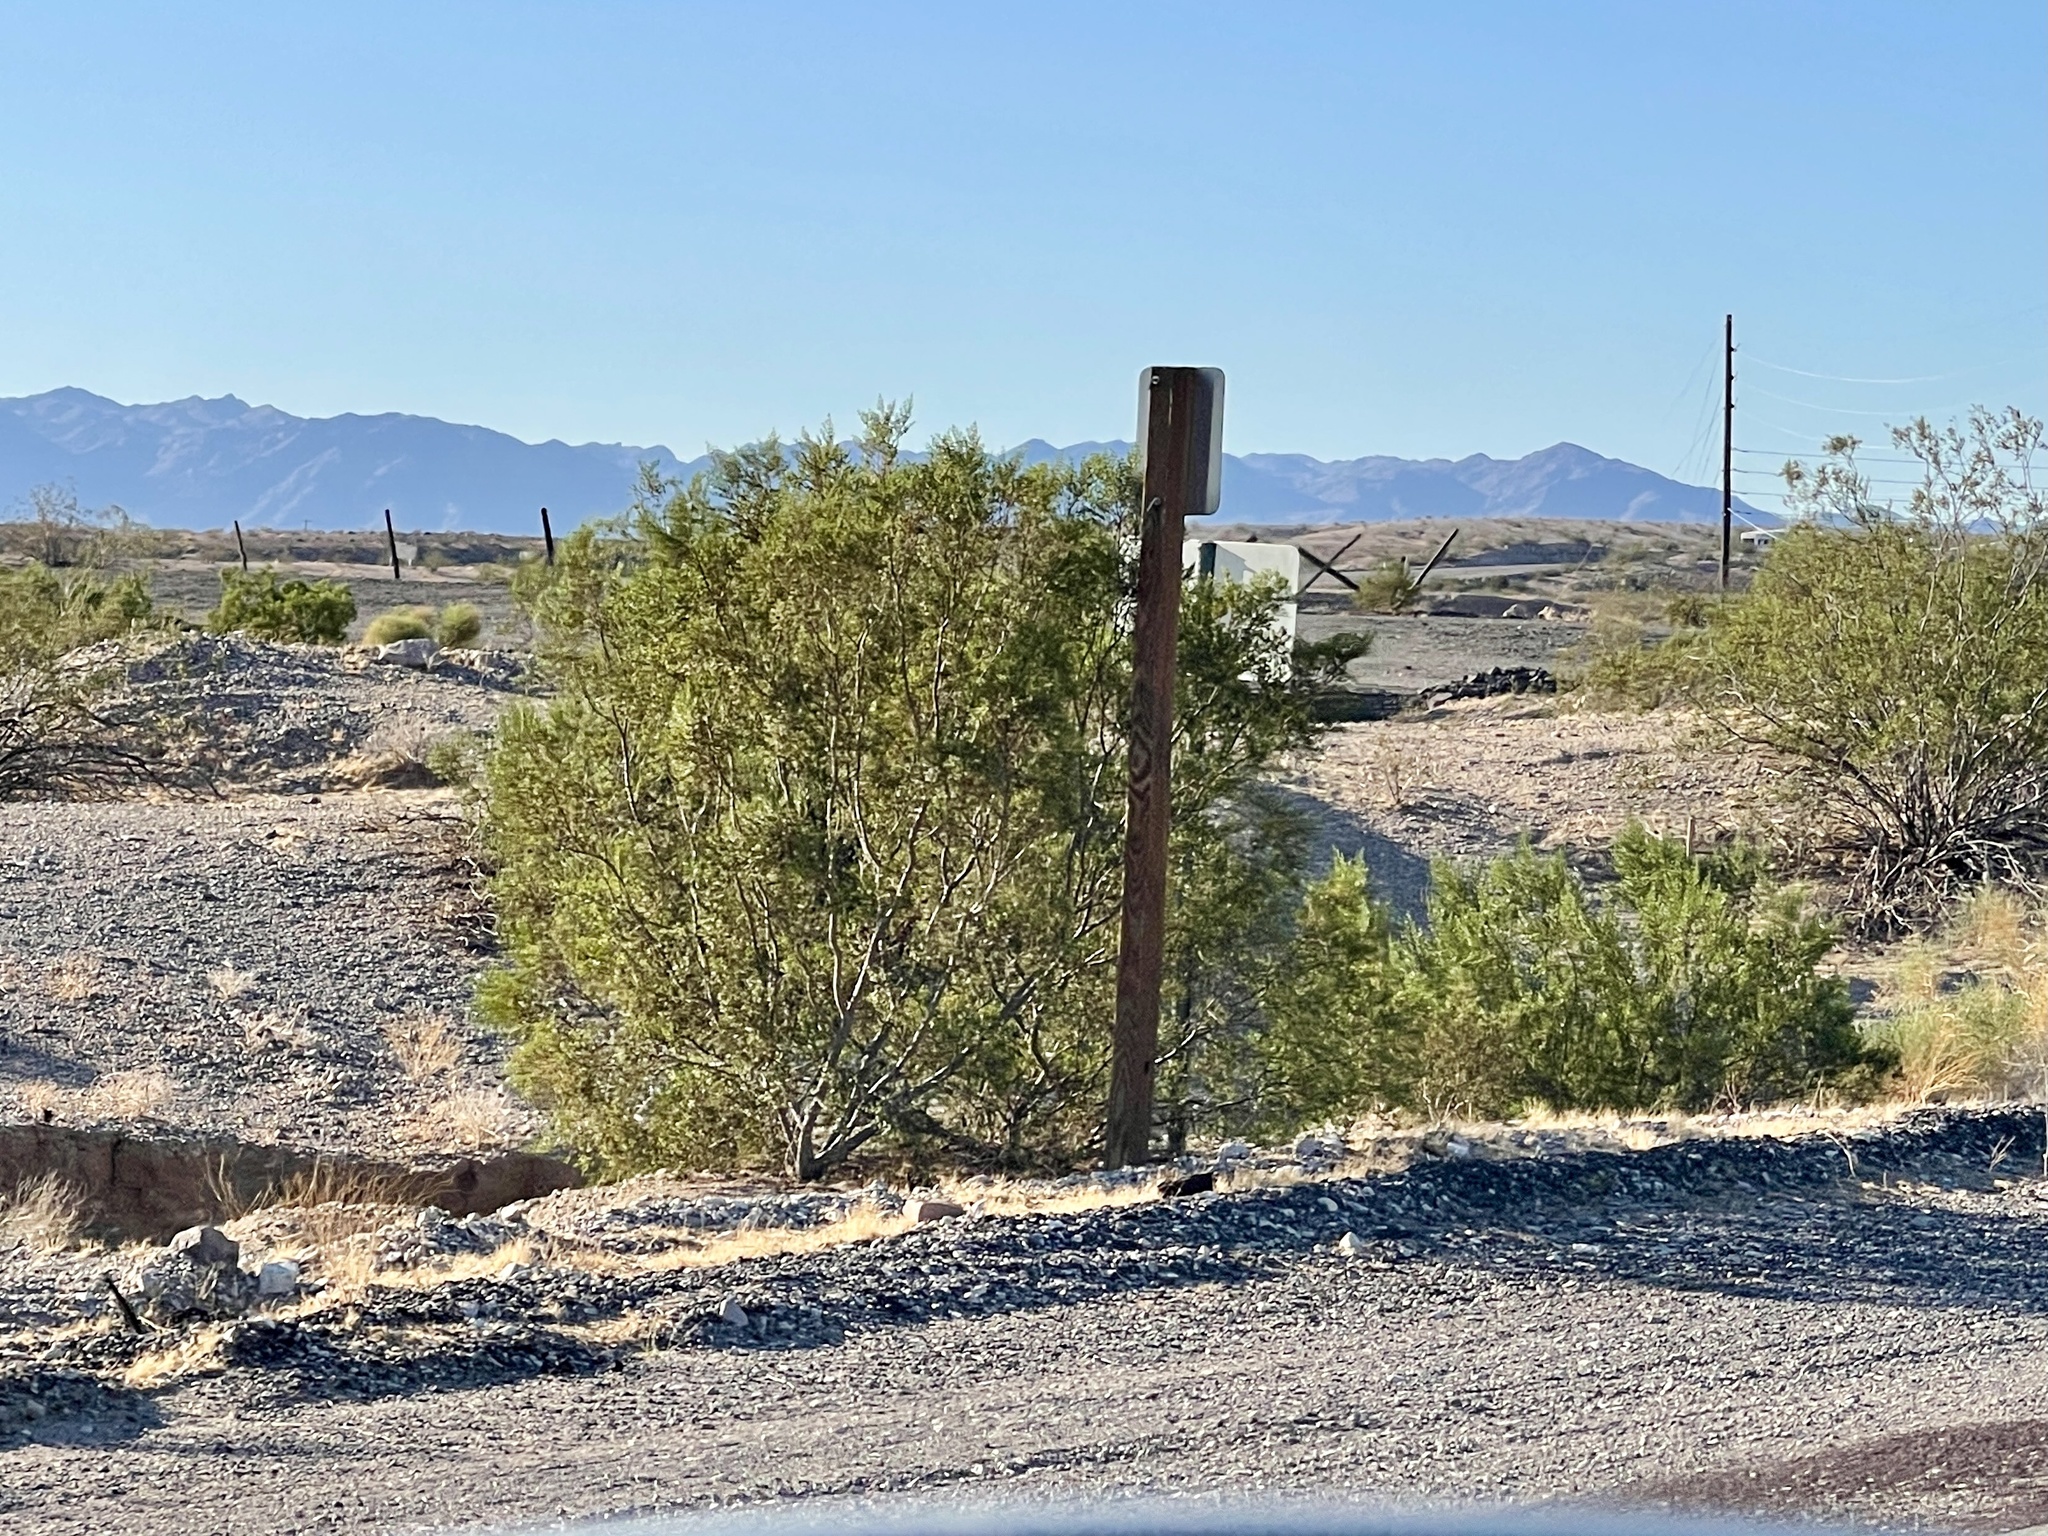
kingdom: Plantae
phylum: Tracheophyta
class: Magnoliopsida
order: Zygophyllales
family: Zygophyllaceae
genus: Larrea
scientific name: Larrea tridentata
